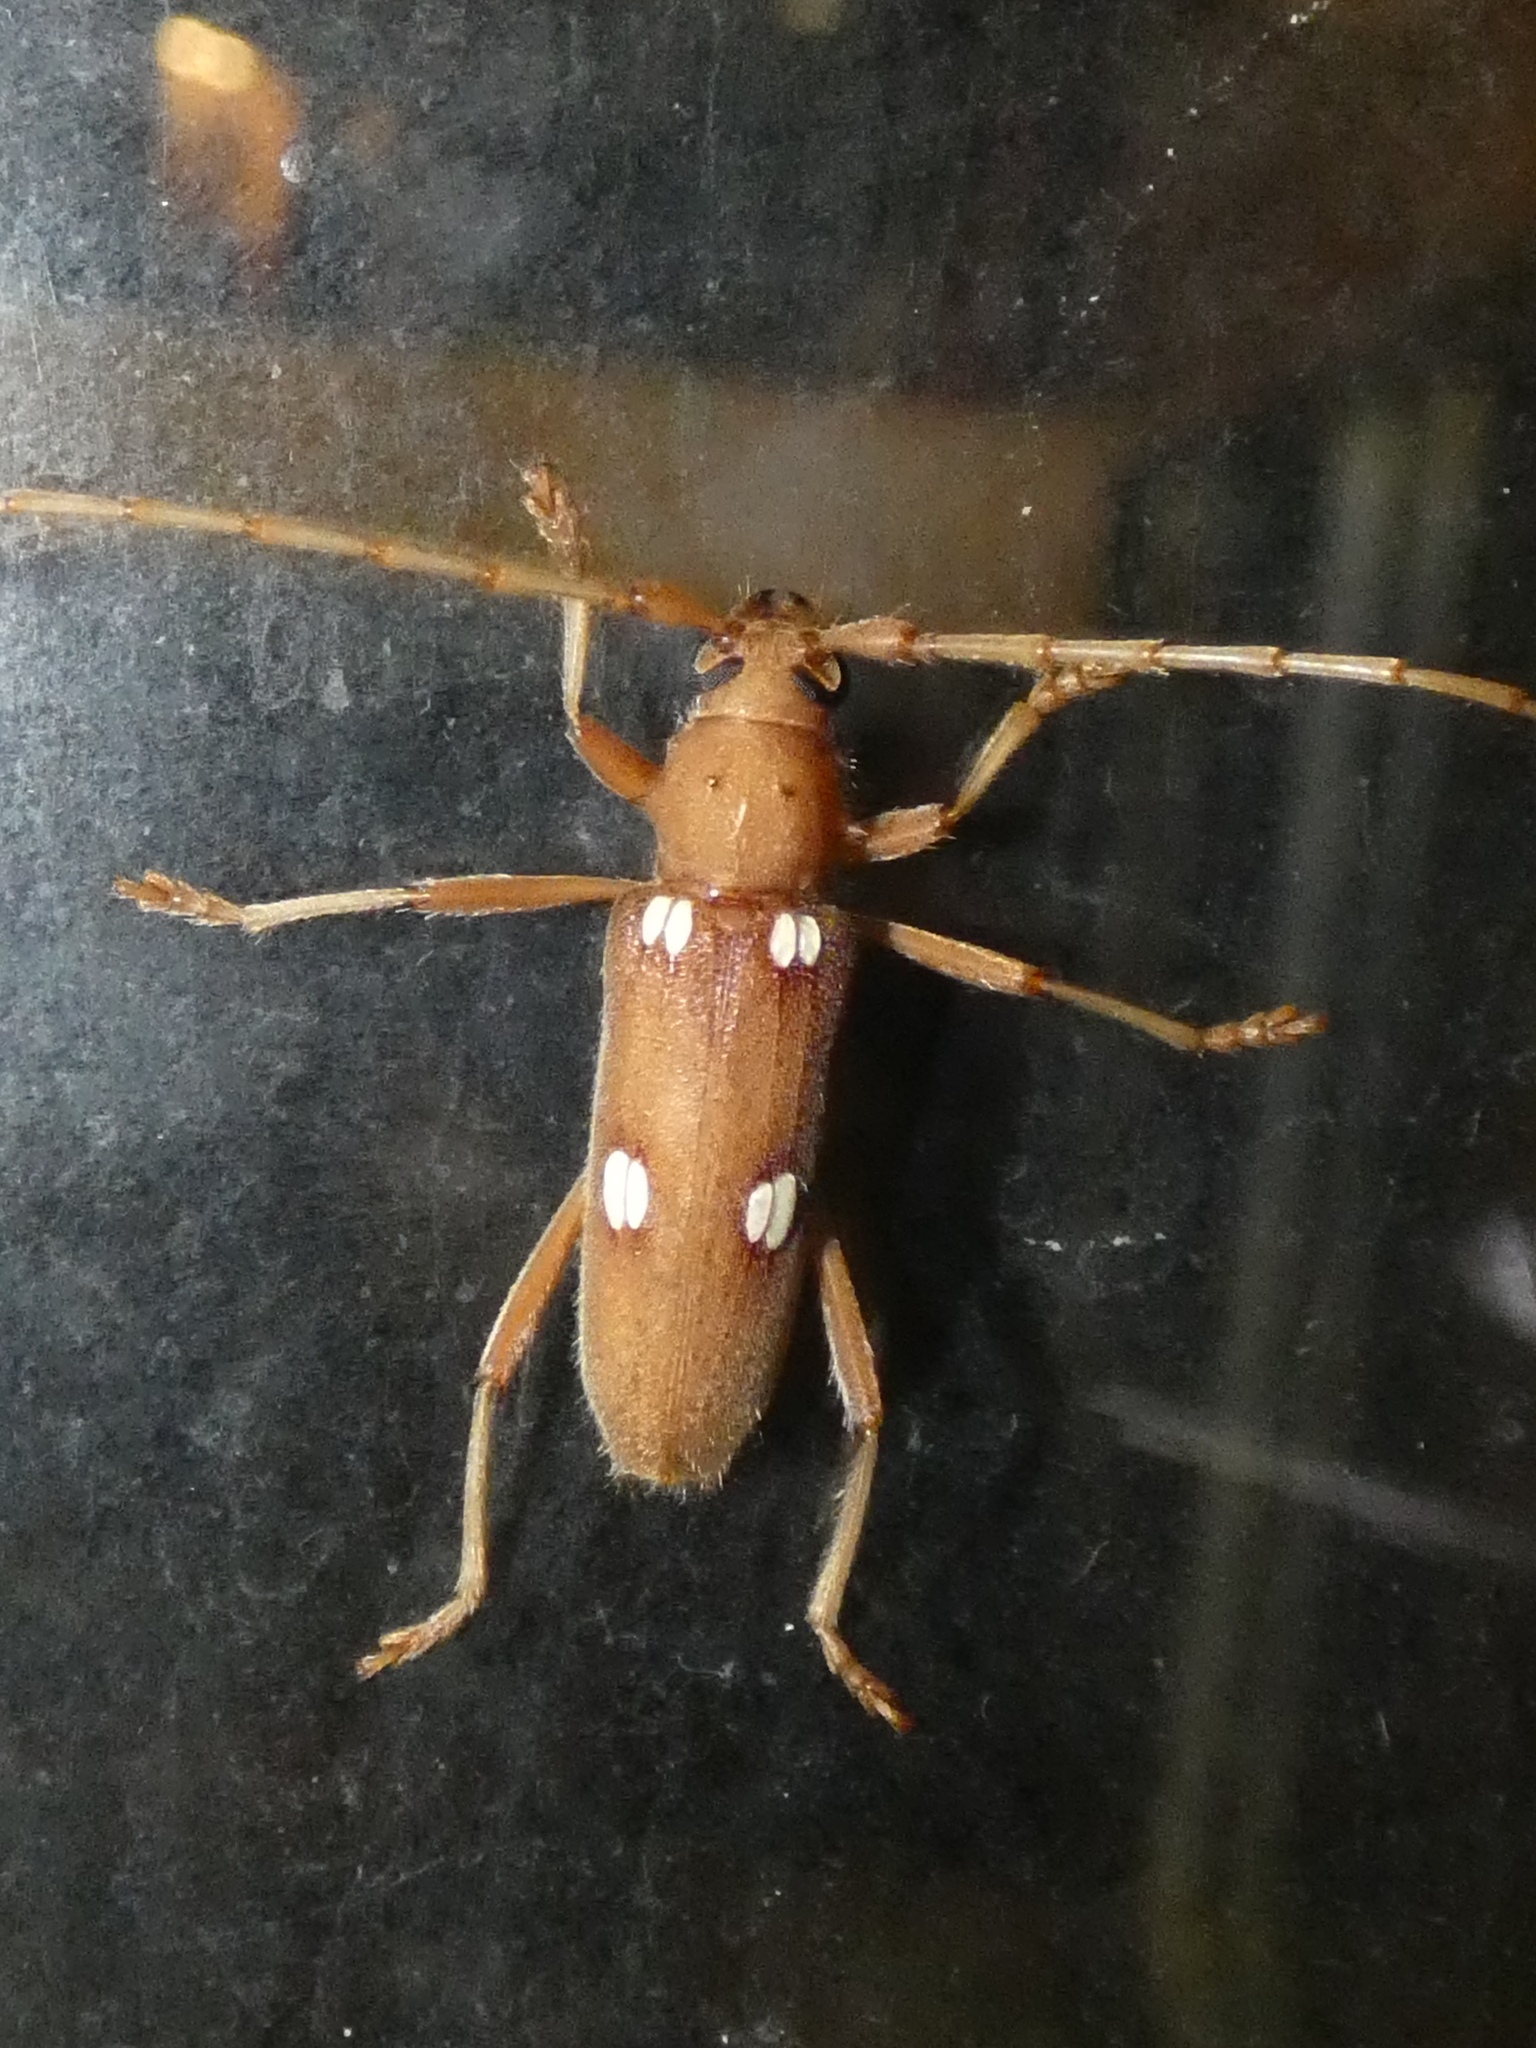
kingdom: Animalia
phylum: Arthropoda
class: Insecta
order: Coleoptera
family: Cerambycidae
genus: Eburia
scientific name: Eburia quadrigeminata
